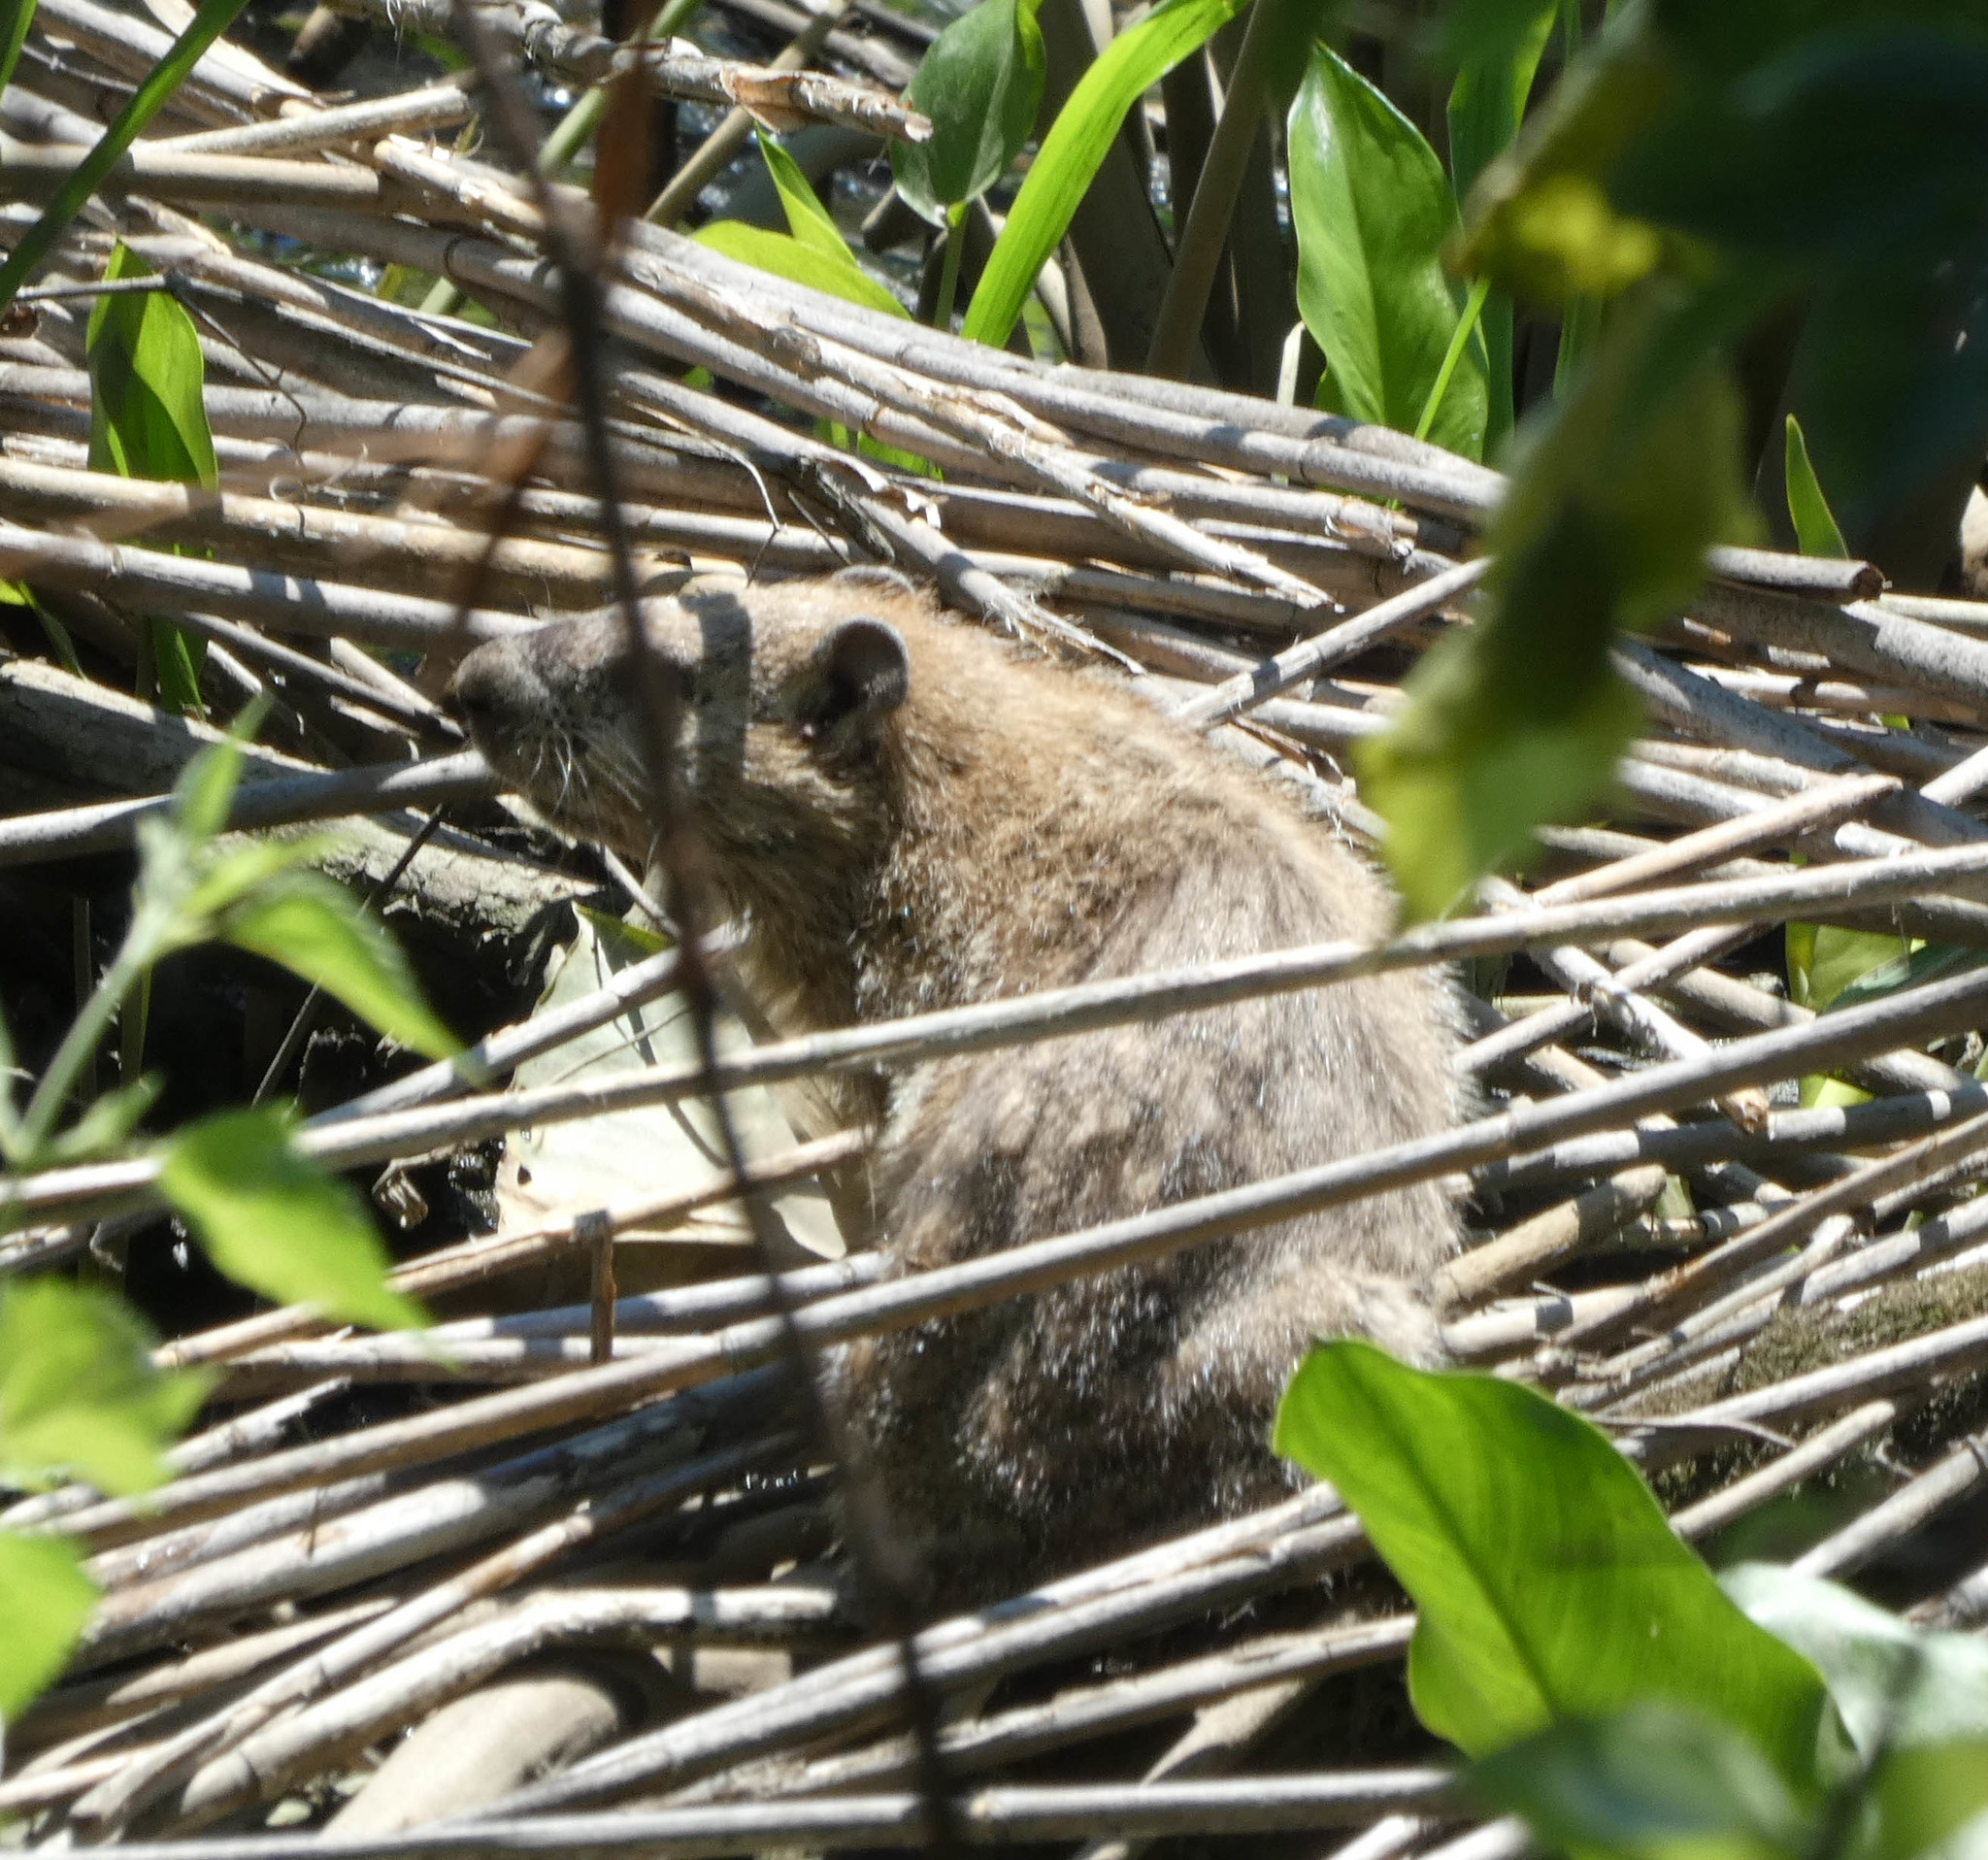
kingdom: Animalia
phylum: Chordata
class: Mammalia
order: Rodentia
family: Sciuridae
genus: Marmota
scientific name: Marmota monax
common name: Groundhog
